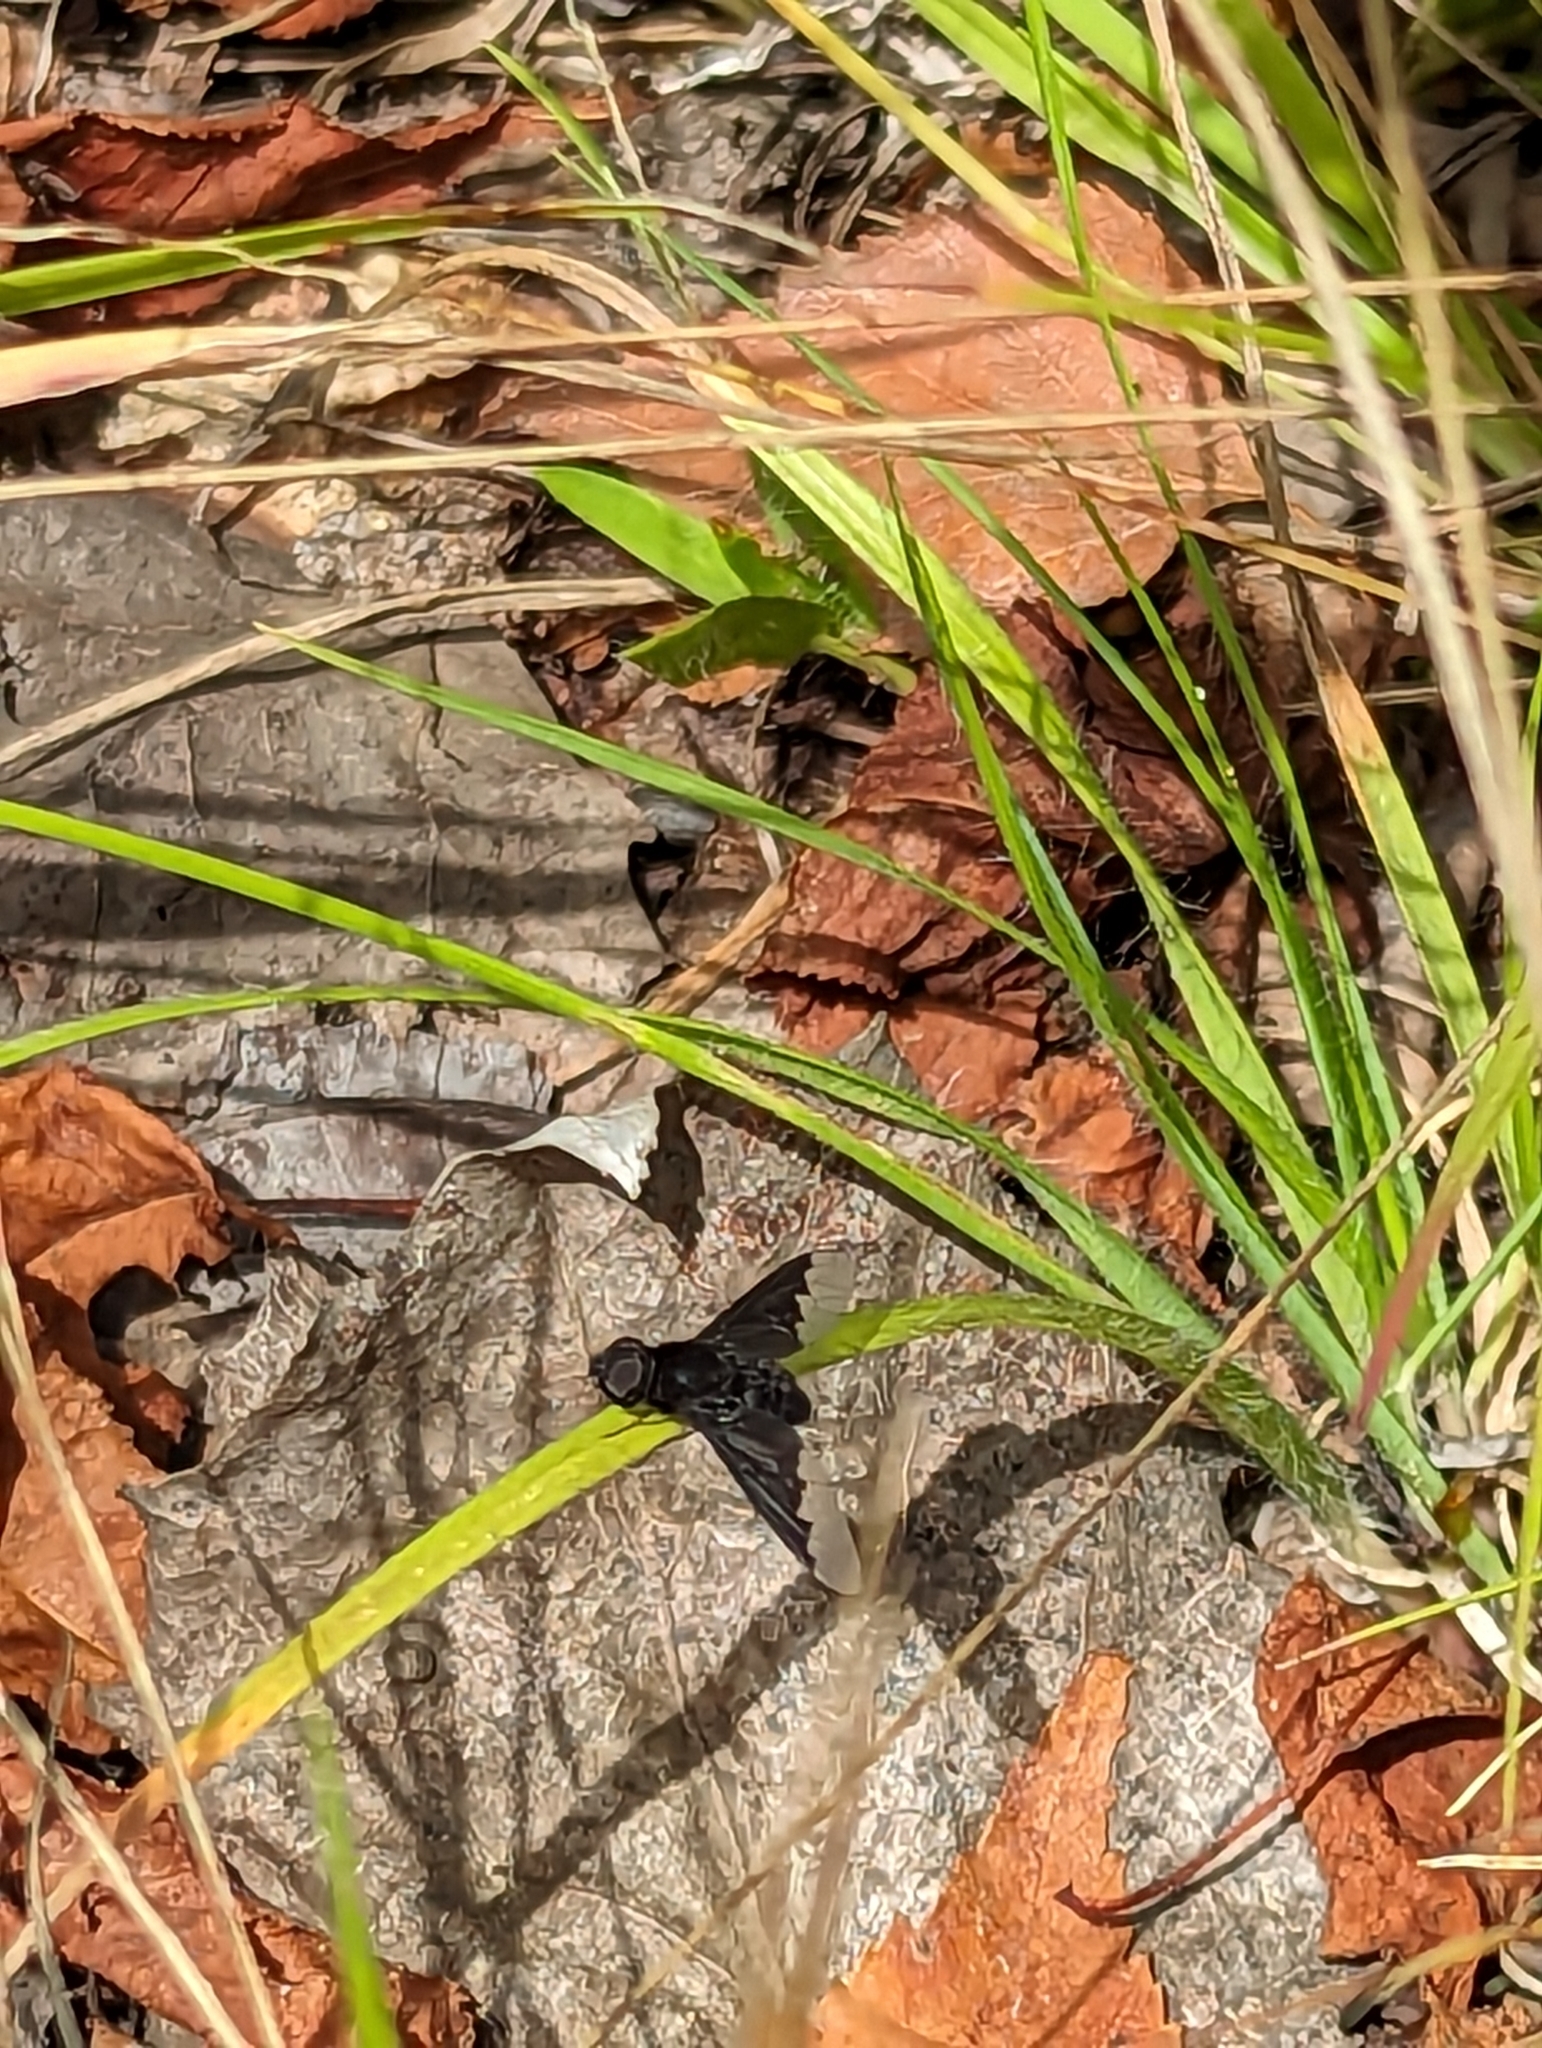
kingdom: Animalia
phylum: Arthropoda
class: Insecta
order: Diptera
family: Bombyliidae
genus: Anthrax
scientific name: Anthrax analis
